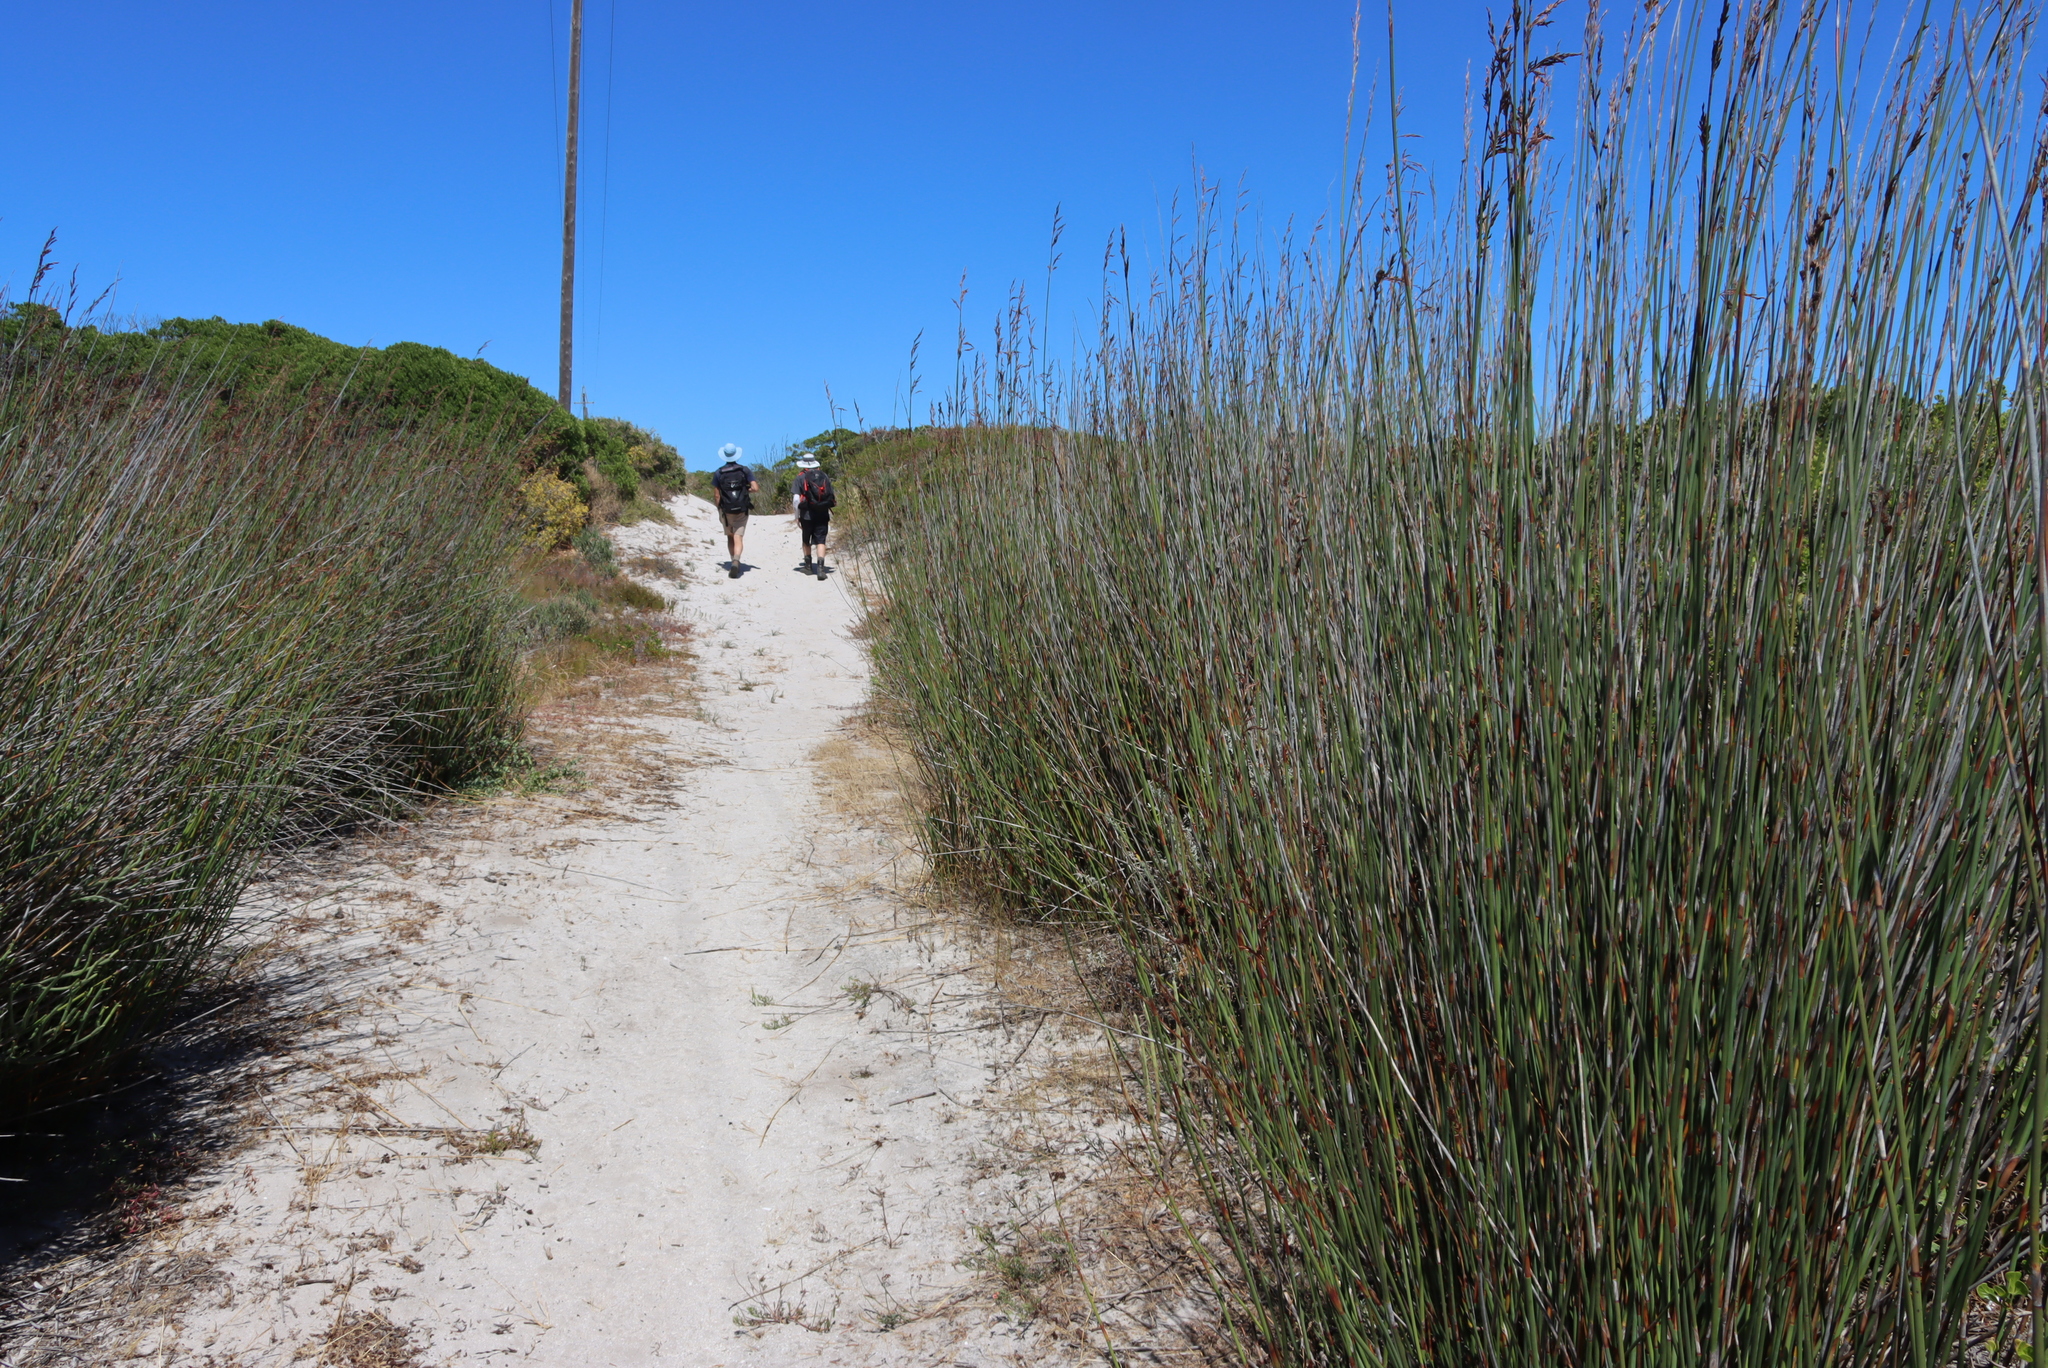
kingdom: Plantae
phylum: Tracheophyta
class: Liliopsida
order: Poales
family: Restionaceae
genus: Thamnochortus
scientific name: Thamnochortus spicigerus
